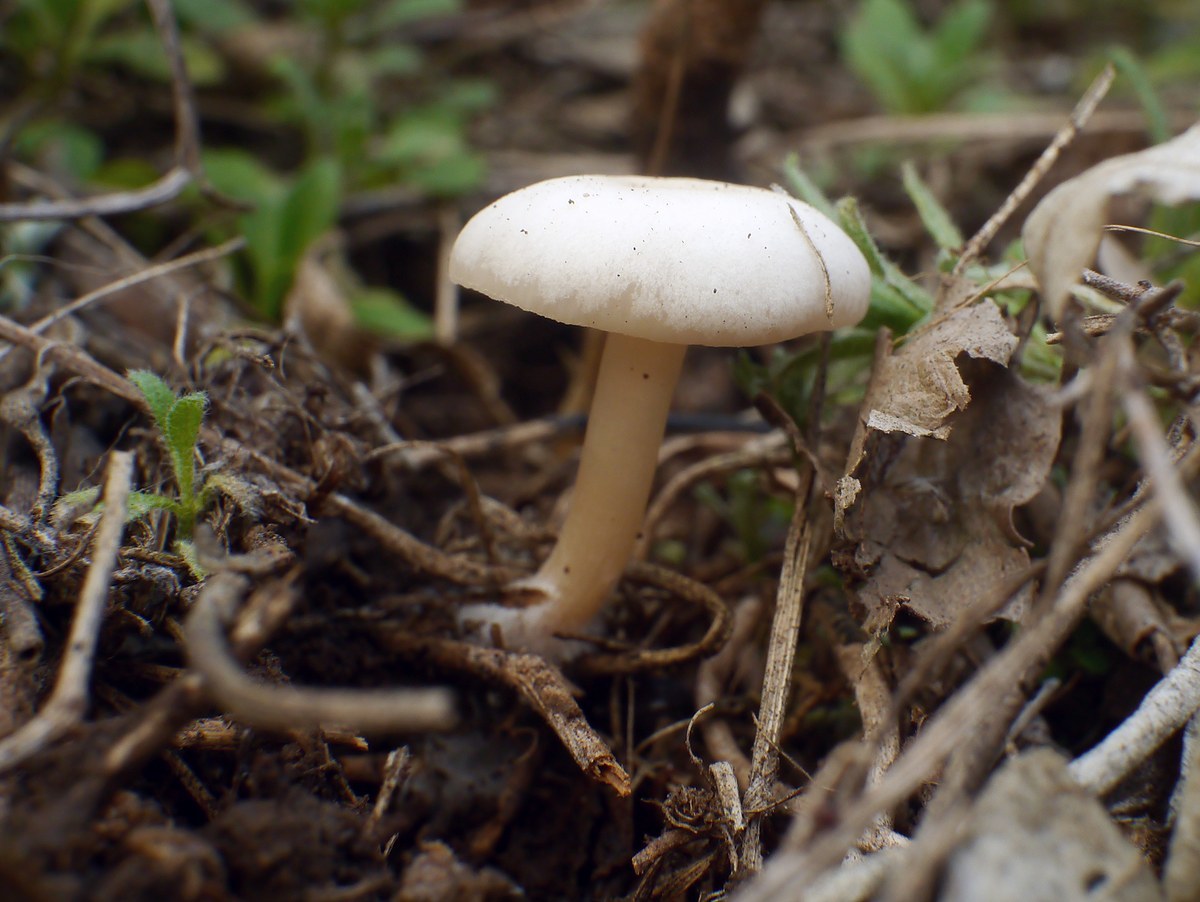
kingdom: Fungi
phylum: Basidiomycota
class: Agaricomycetes
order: Agaricales
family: Hygrophoraceae
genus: Hygrophorus
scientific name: Hygrophorus eburneus
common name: Ivory wax-cap
